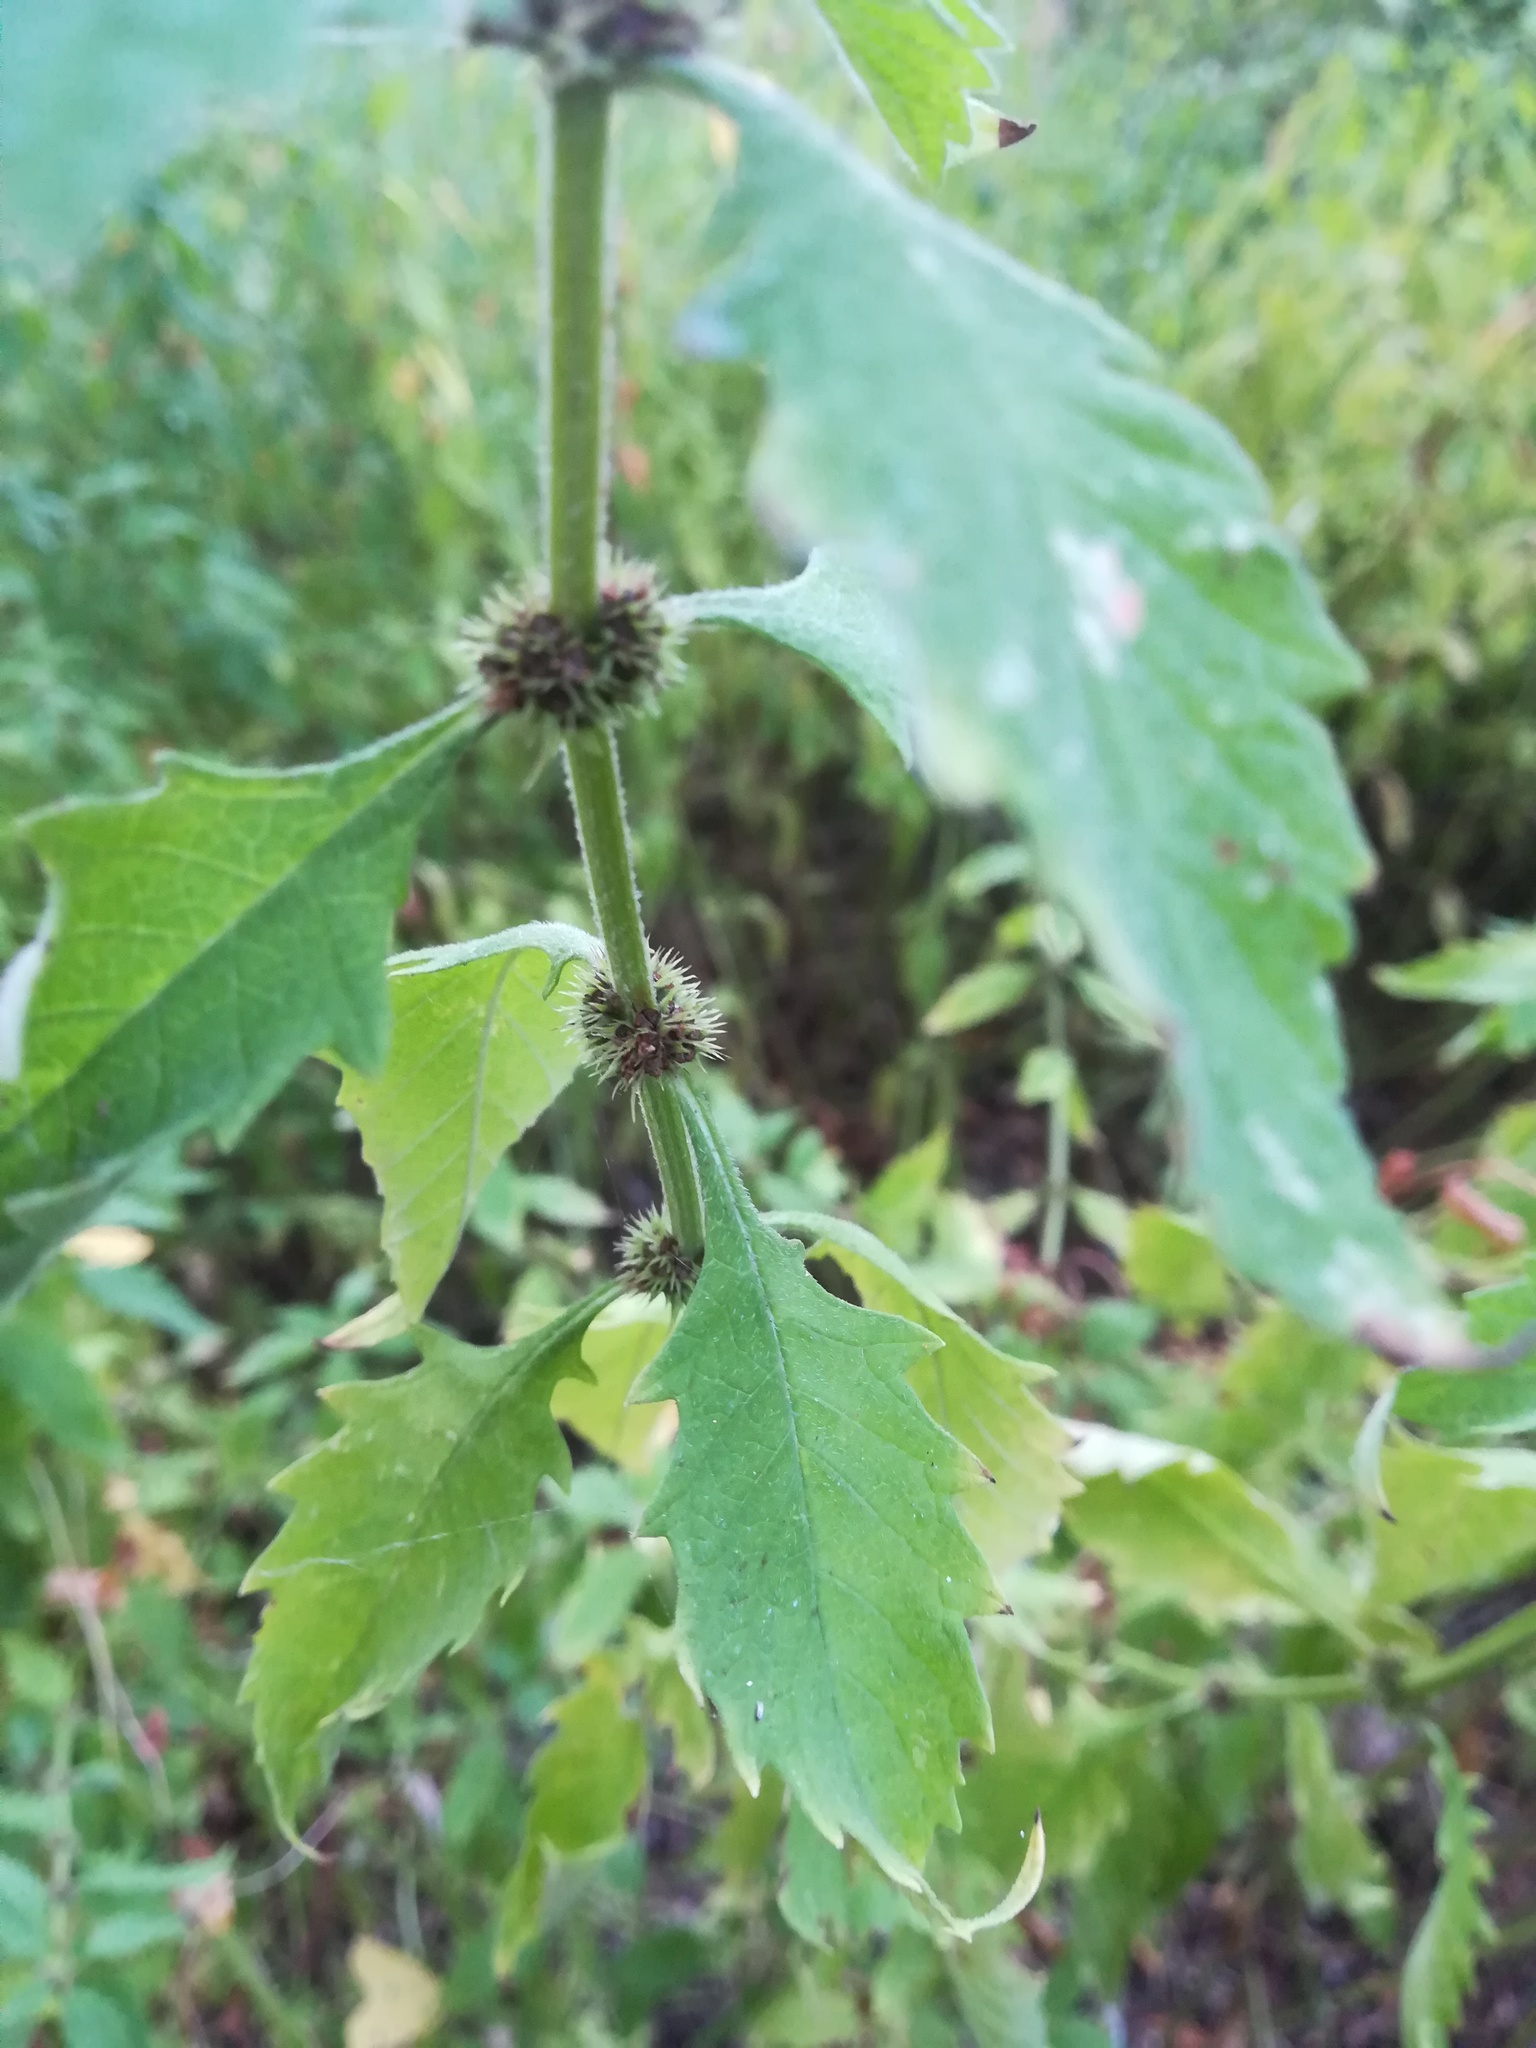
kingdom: Plantae
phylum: Tracheophyta
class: Magnoliopsida
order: Lamiales
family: Lamiaceae
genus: Lycopus
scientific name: Lycopus europaeus
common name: European bugleweed
